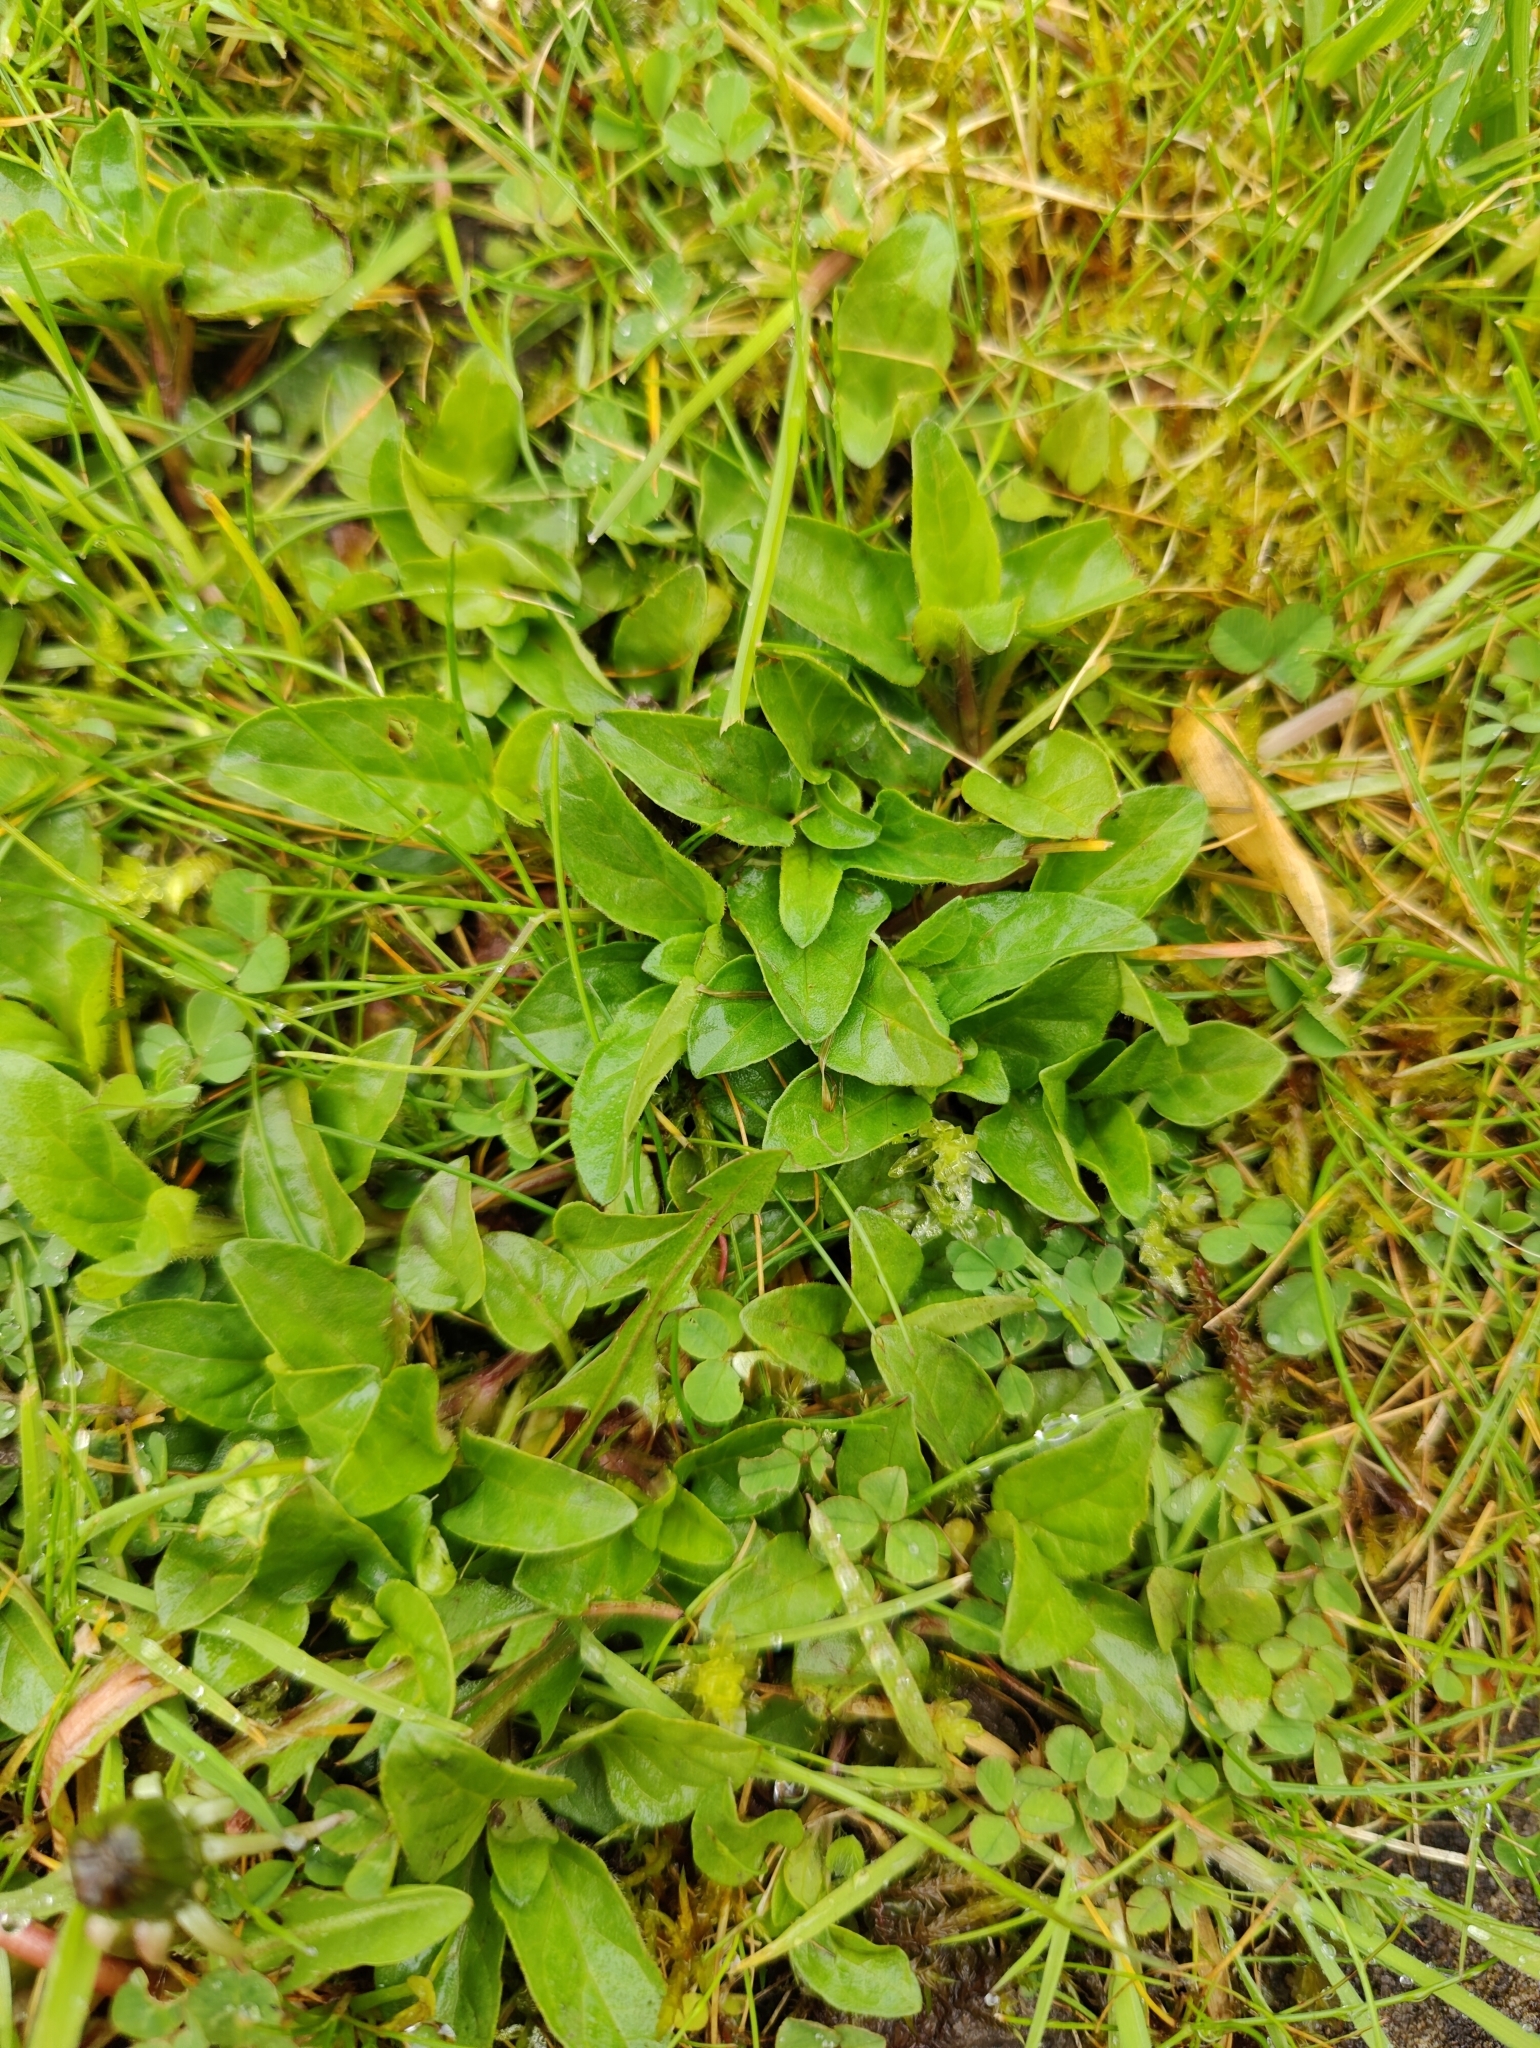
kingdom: Plantae
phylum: Tracheophyta
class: Magnoliopsida
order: Lamiales
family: Lamiaceae
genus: Prunella
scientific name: Prunella vulgaris
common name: Heal-all
